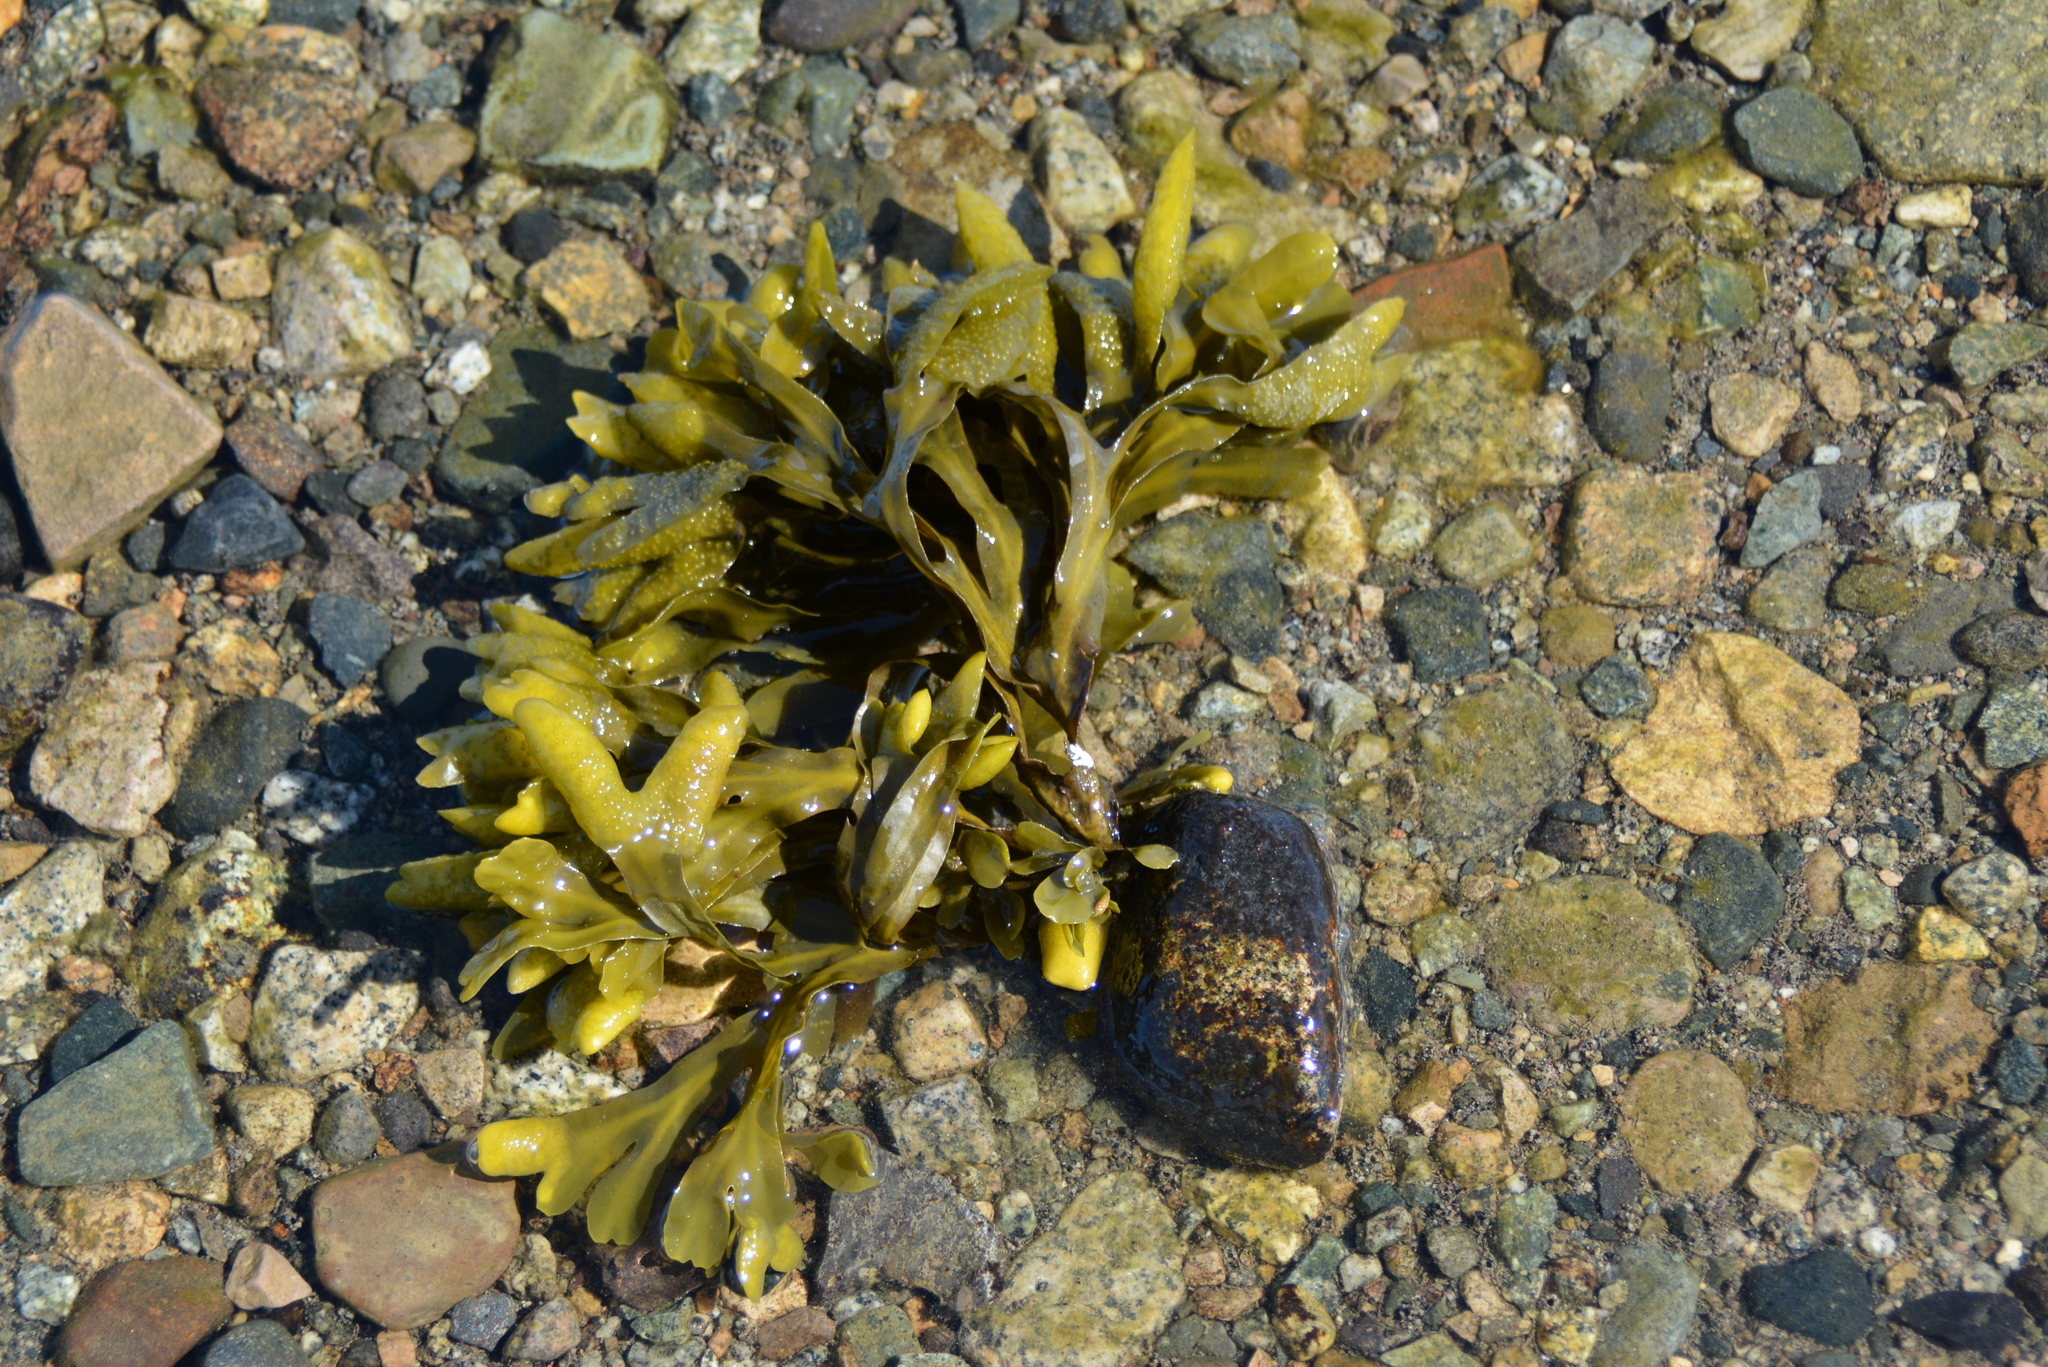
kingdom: Chromista
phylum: Ochrophyta
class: Phaeophyceae
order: Fucales
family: Fucaceae
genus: Fucus
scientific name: Fucus distichus
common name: Rockweed
